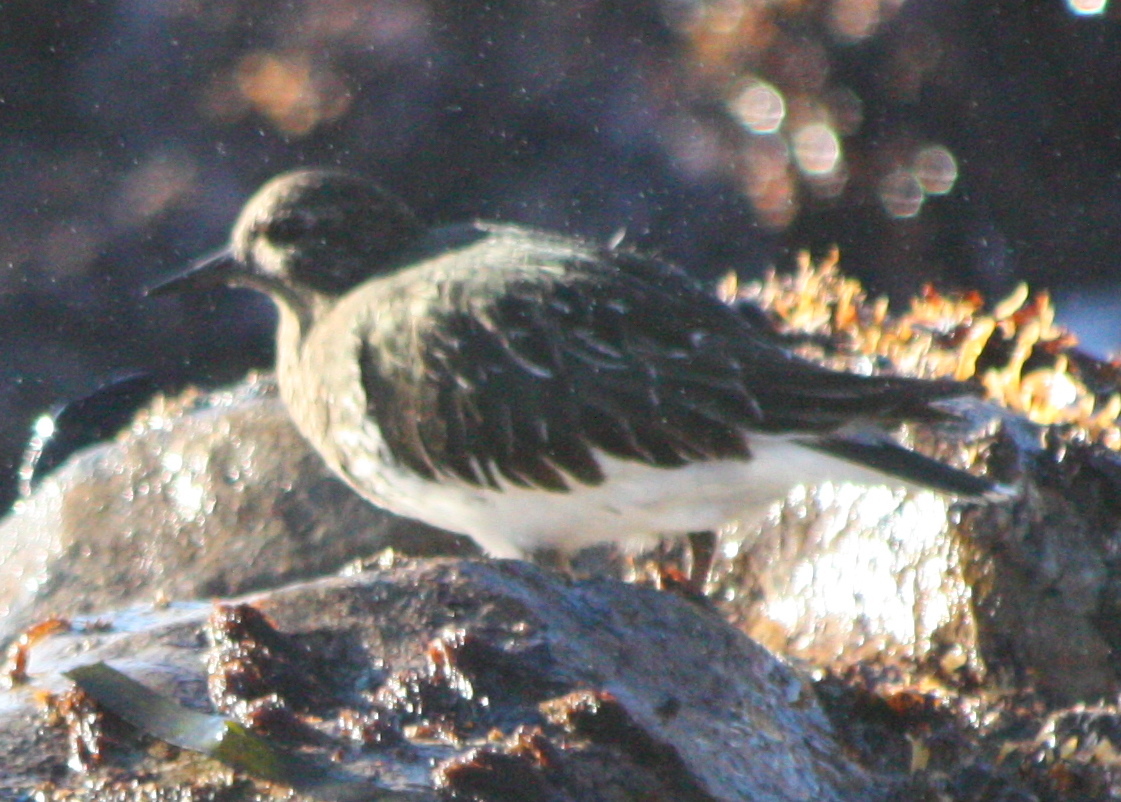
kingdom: Animalia
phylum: Chordata
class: Aves
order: Charadriiformes
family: Scolopacidae
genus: Arenaria
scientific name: Arenaria melanocephala
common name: Black turnstone
